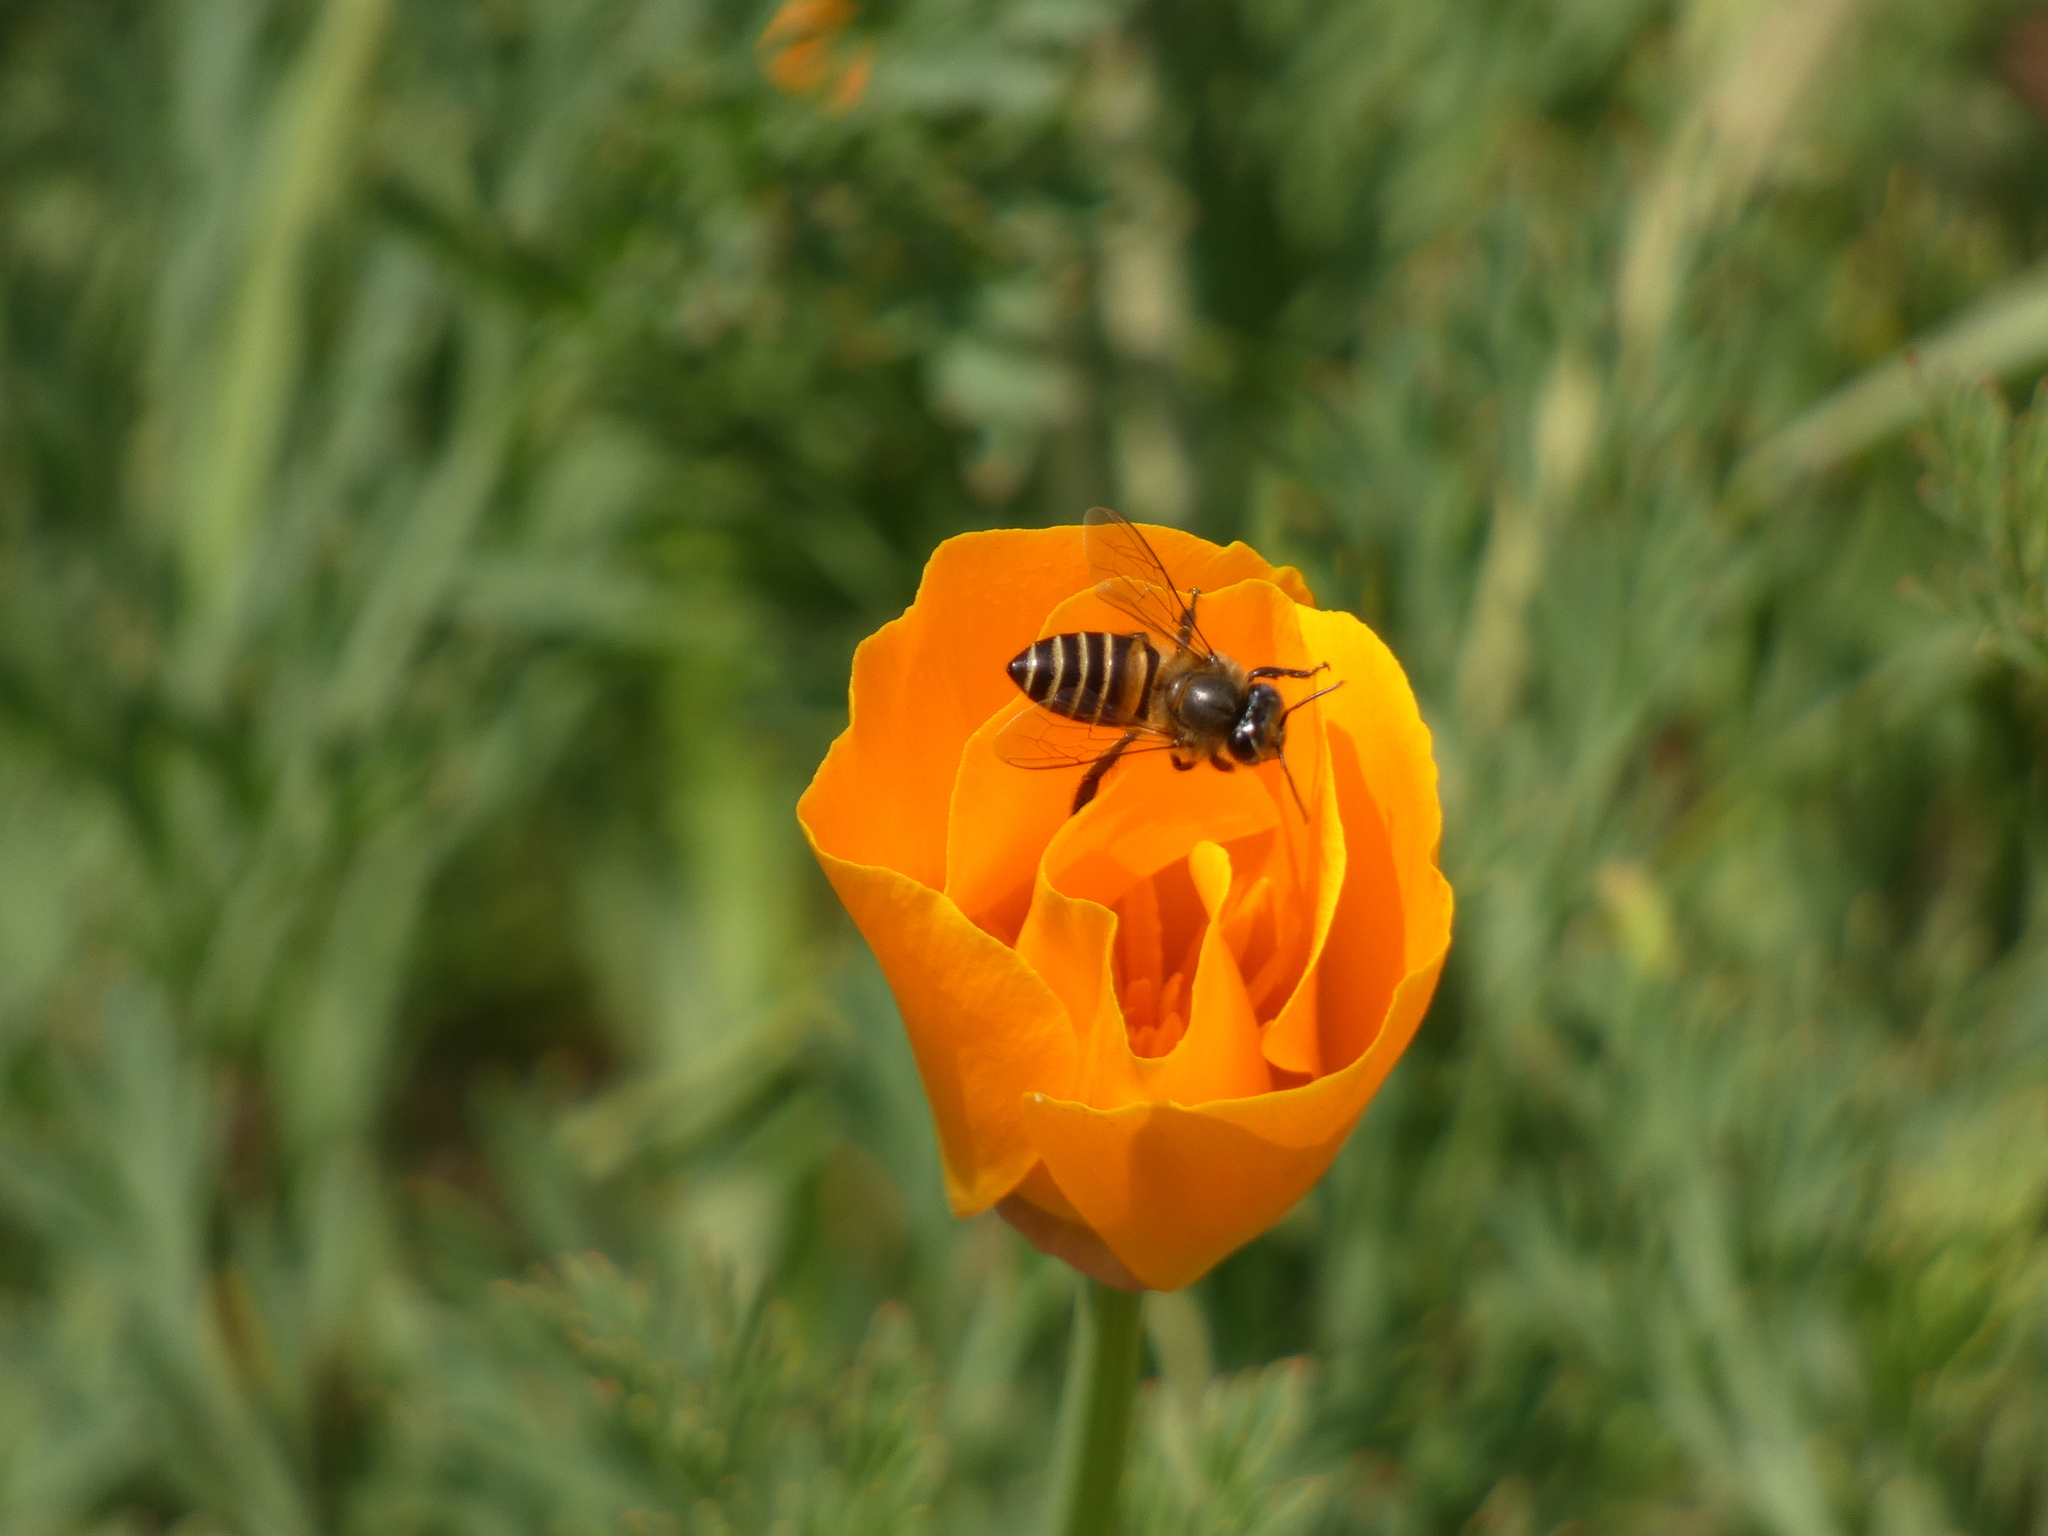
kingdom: Animalia
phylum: Arthropoda
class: Insecta
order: Hymenoptera
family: Apidae
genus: Apis
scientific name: Apis cerana
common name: Honey bee
